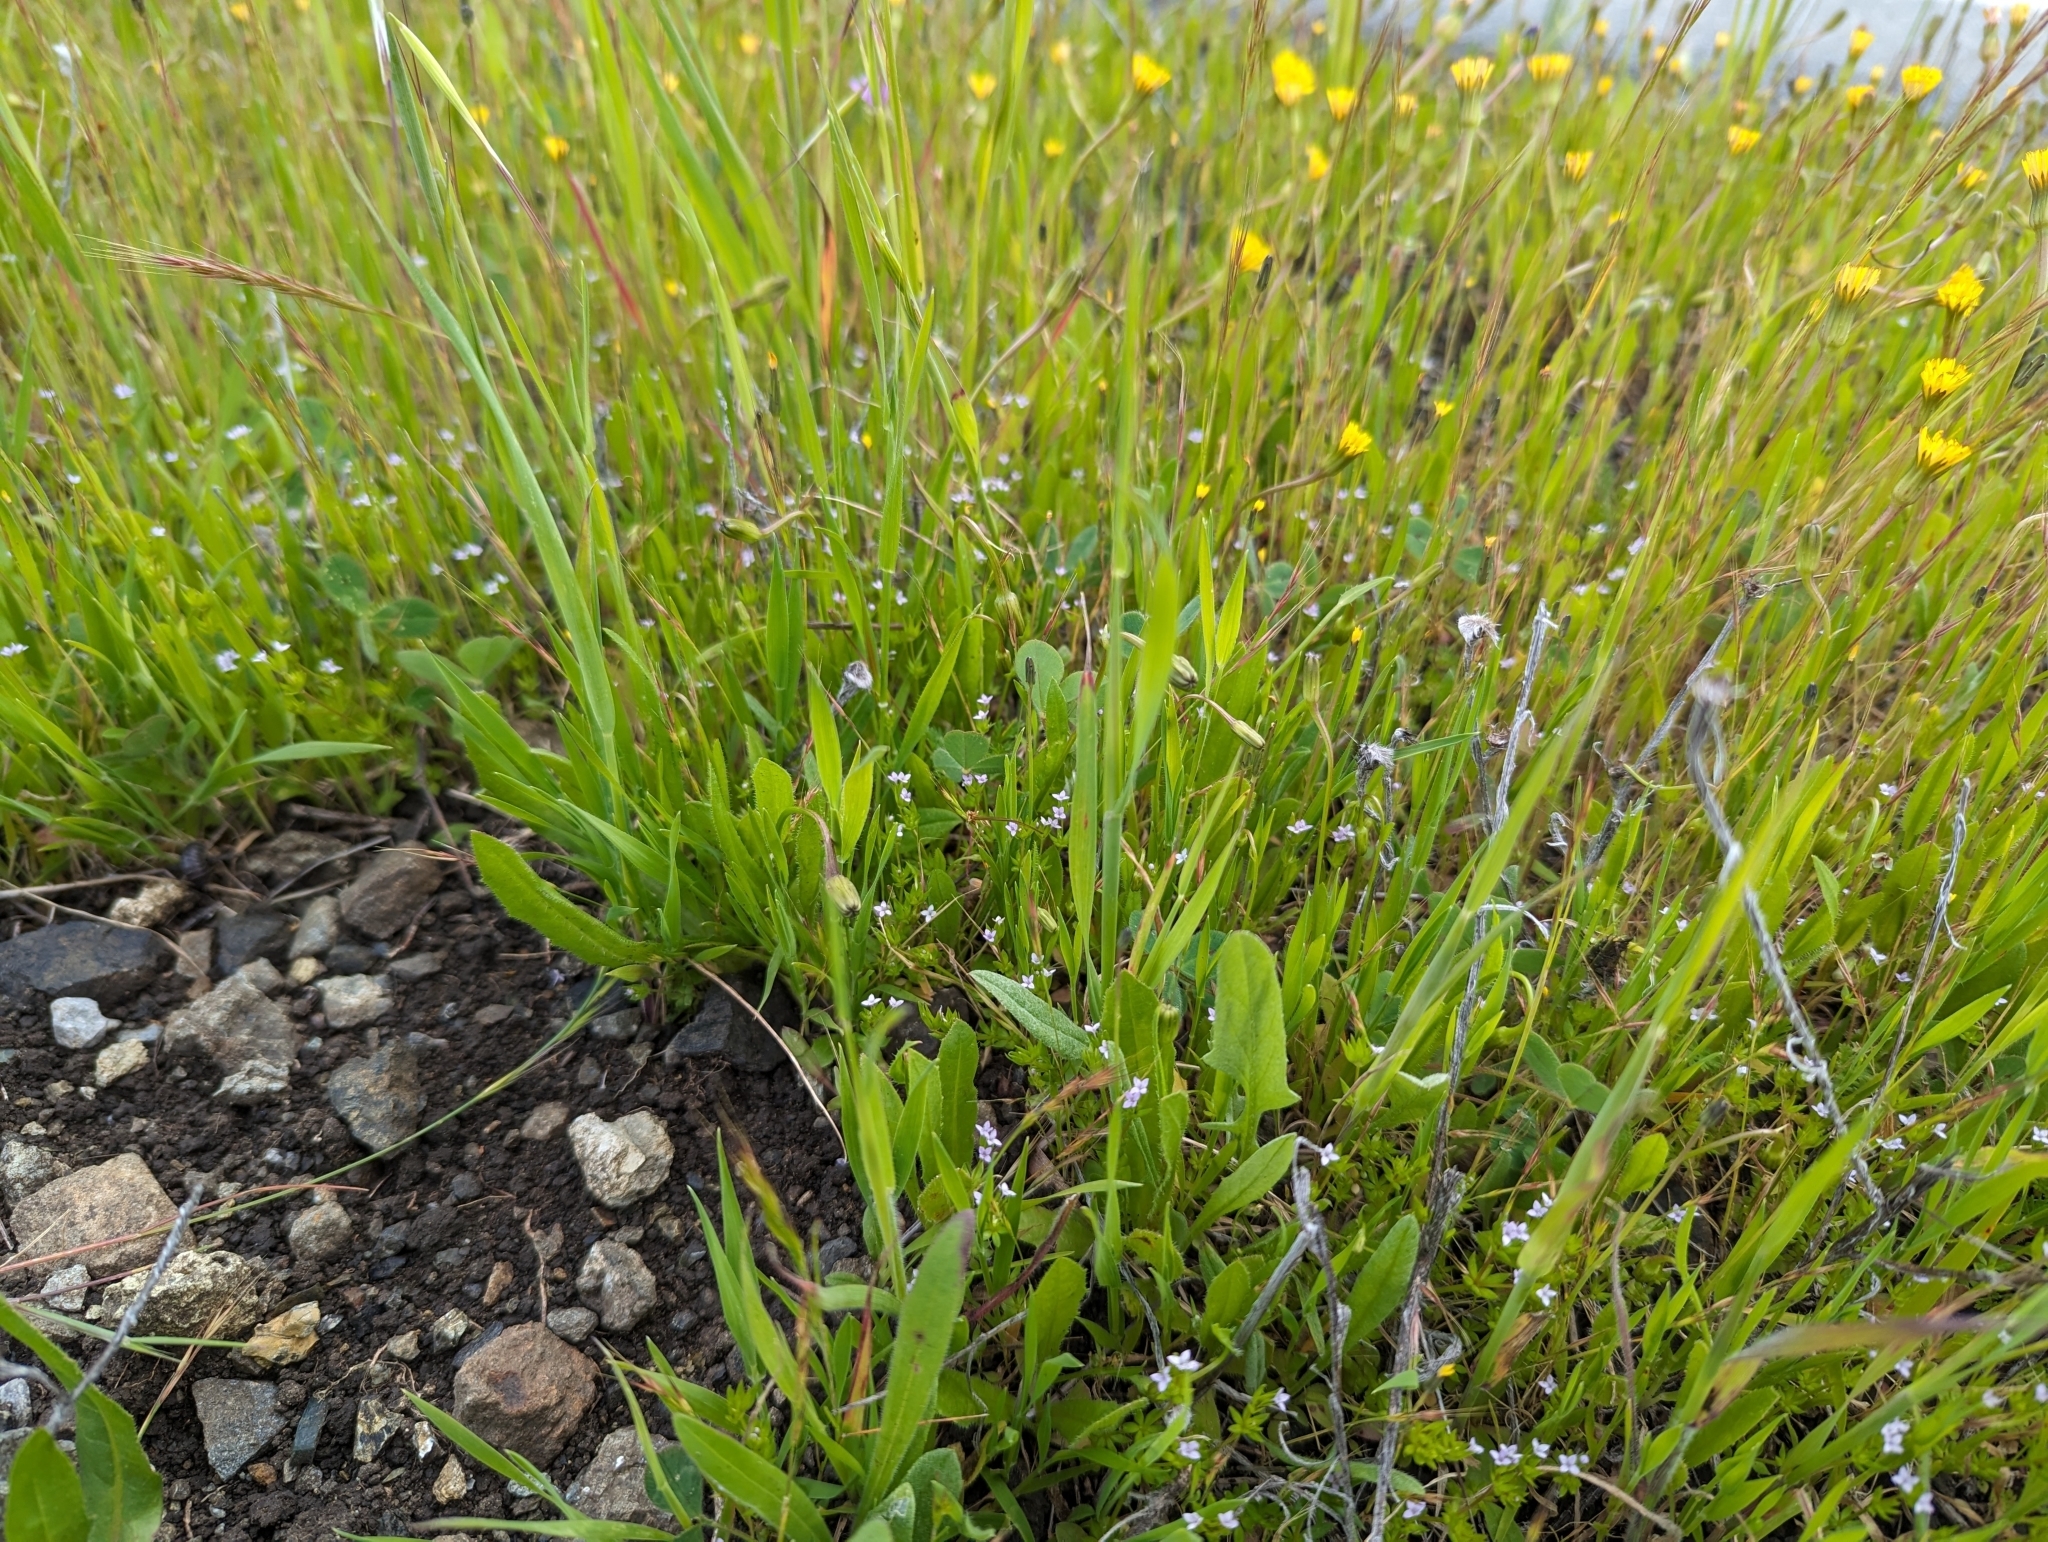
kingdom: Plantae
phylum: Tracheophyta
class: Magnoliopsida
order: Gentianales
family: Rubiaceae
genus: Sherardia
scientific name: Sherardia arvensis
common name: Field madder
